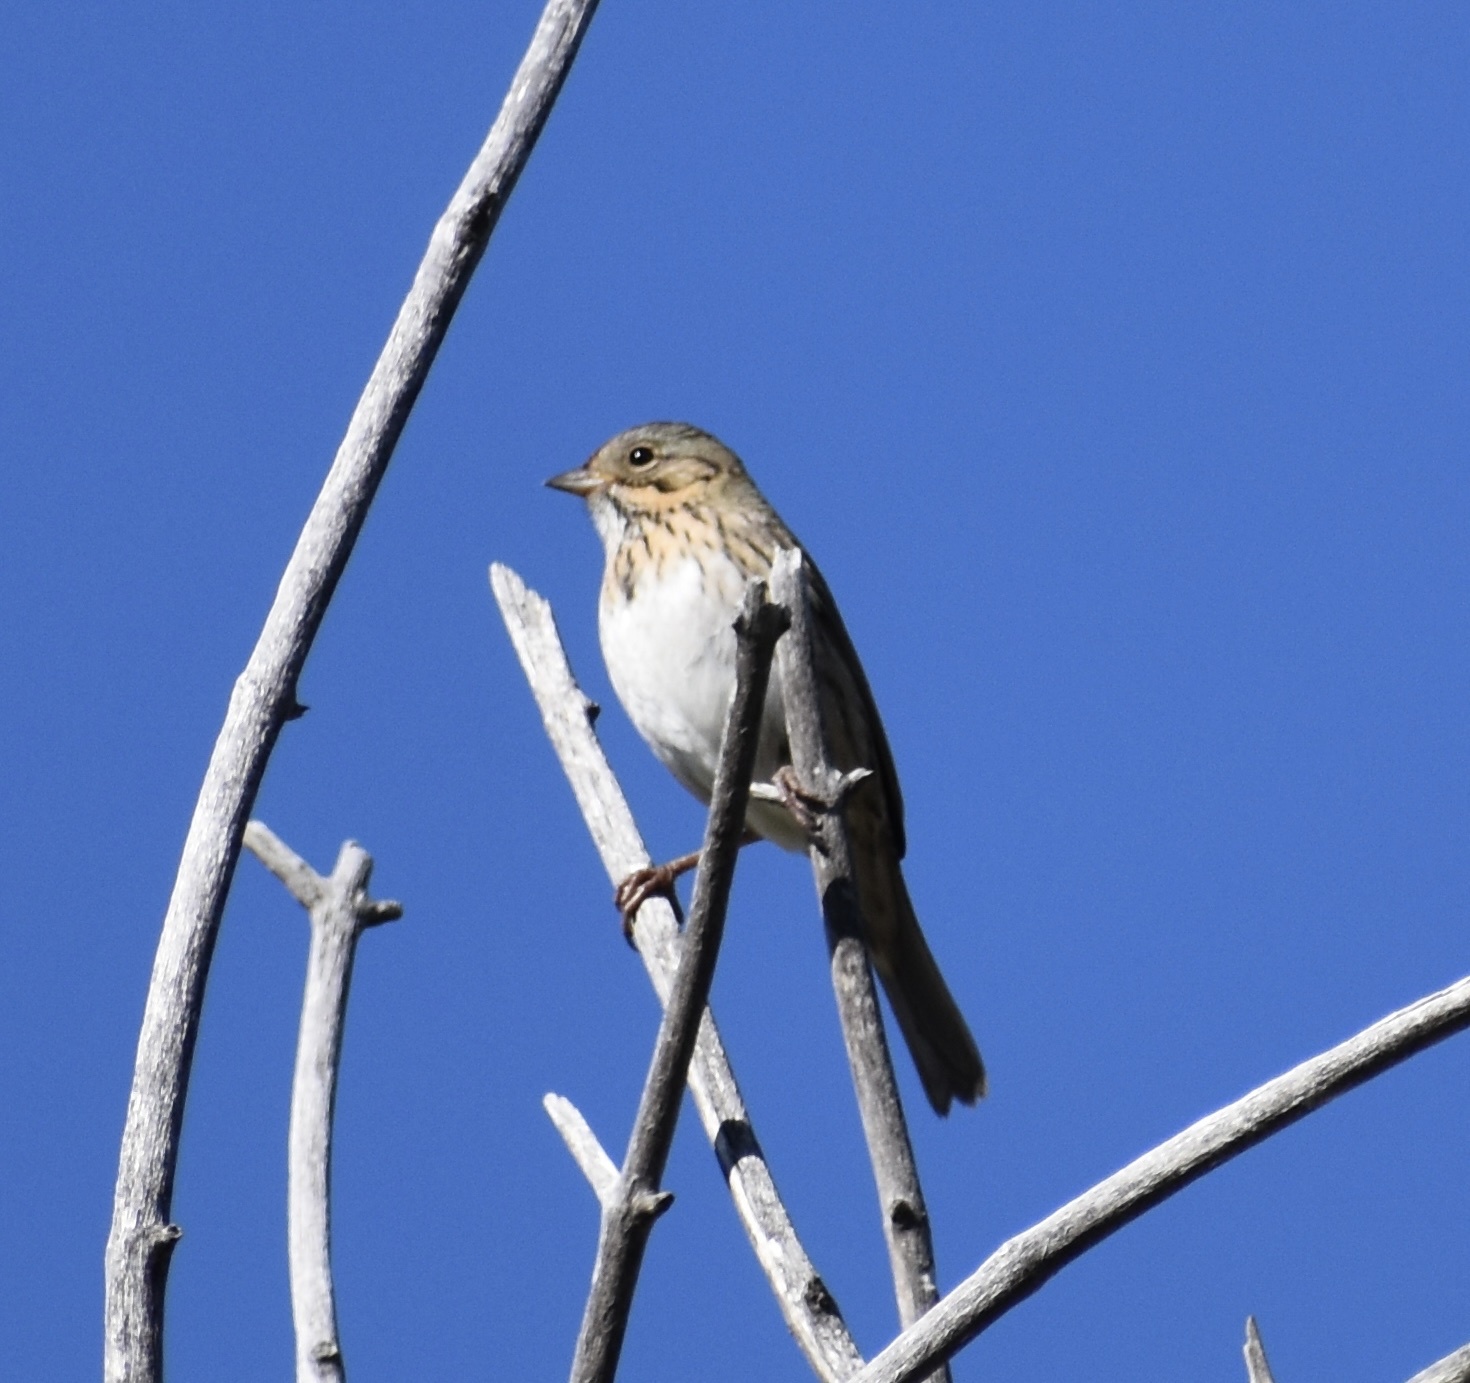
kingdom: Animalia
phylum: Chordata
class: Aves
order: Passeriformes
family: Passerellidae
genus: Melospiza
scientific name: Melospiza lincolnii
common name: Lincoln's sparrow
